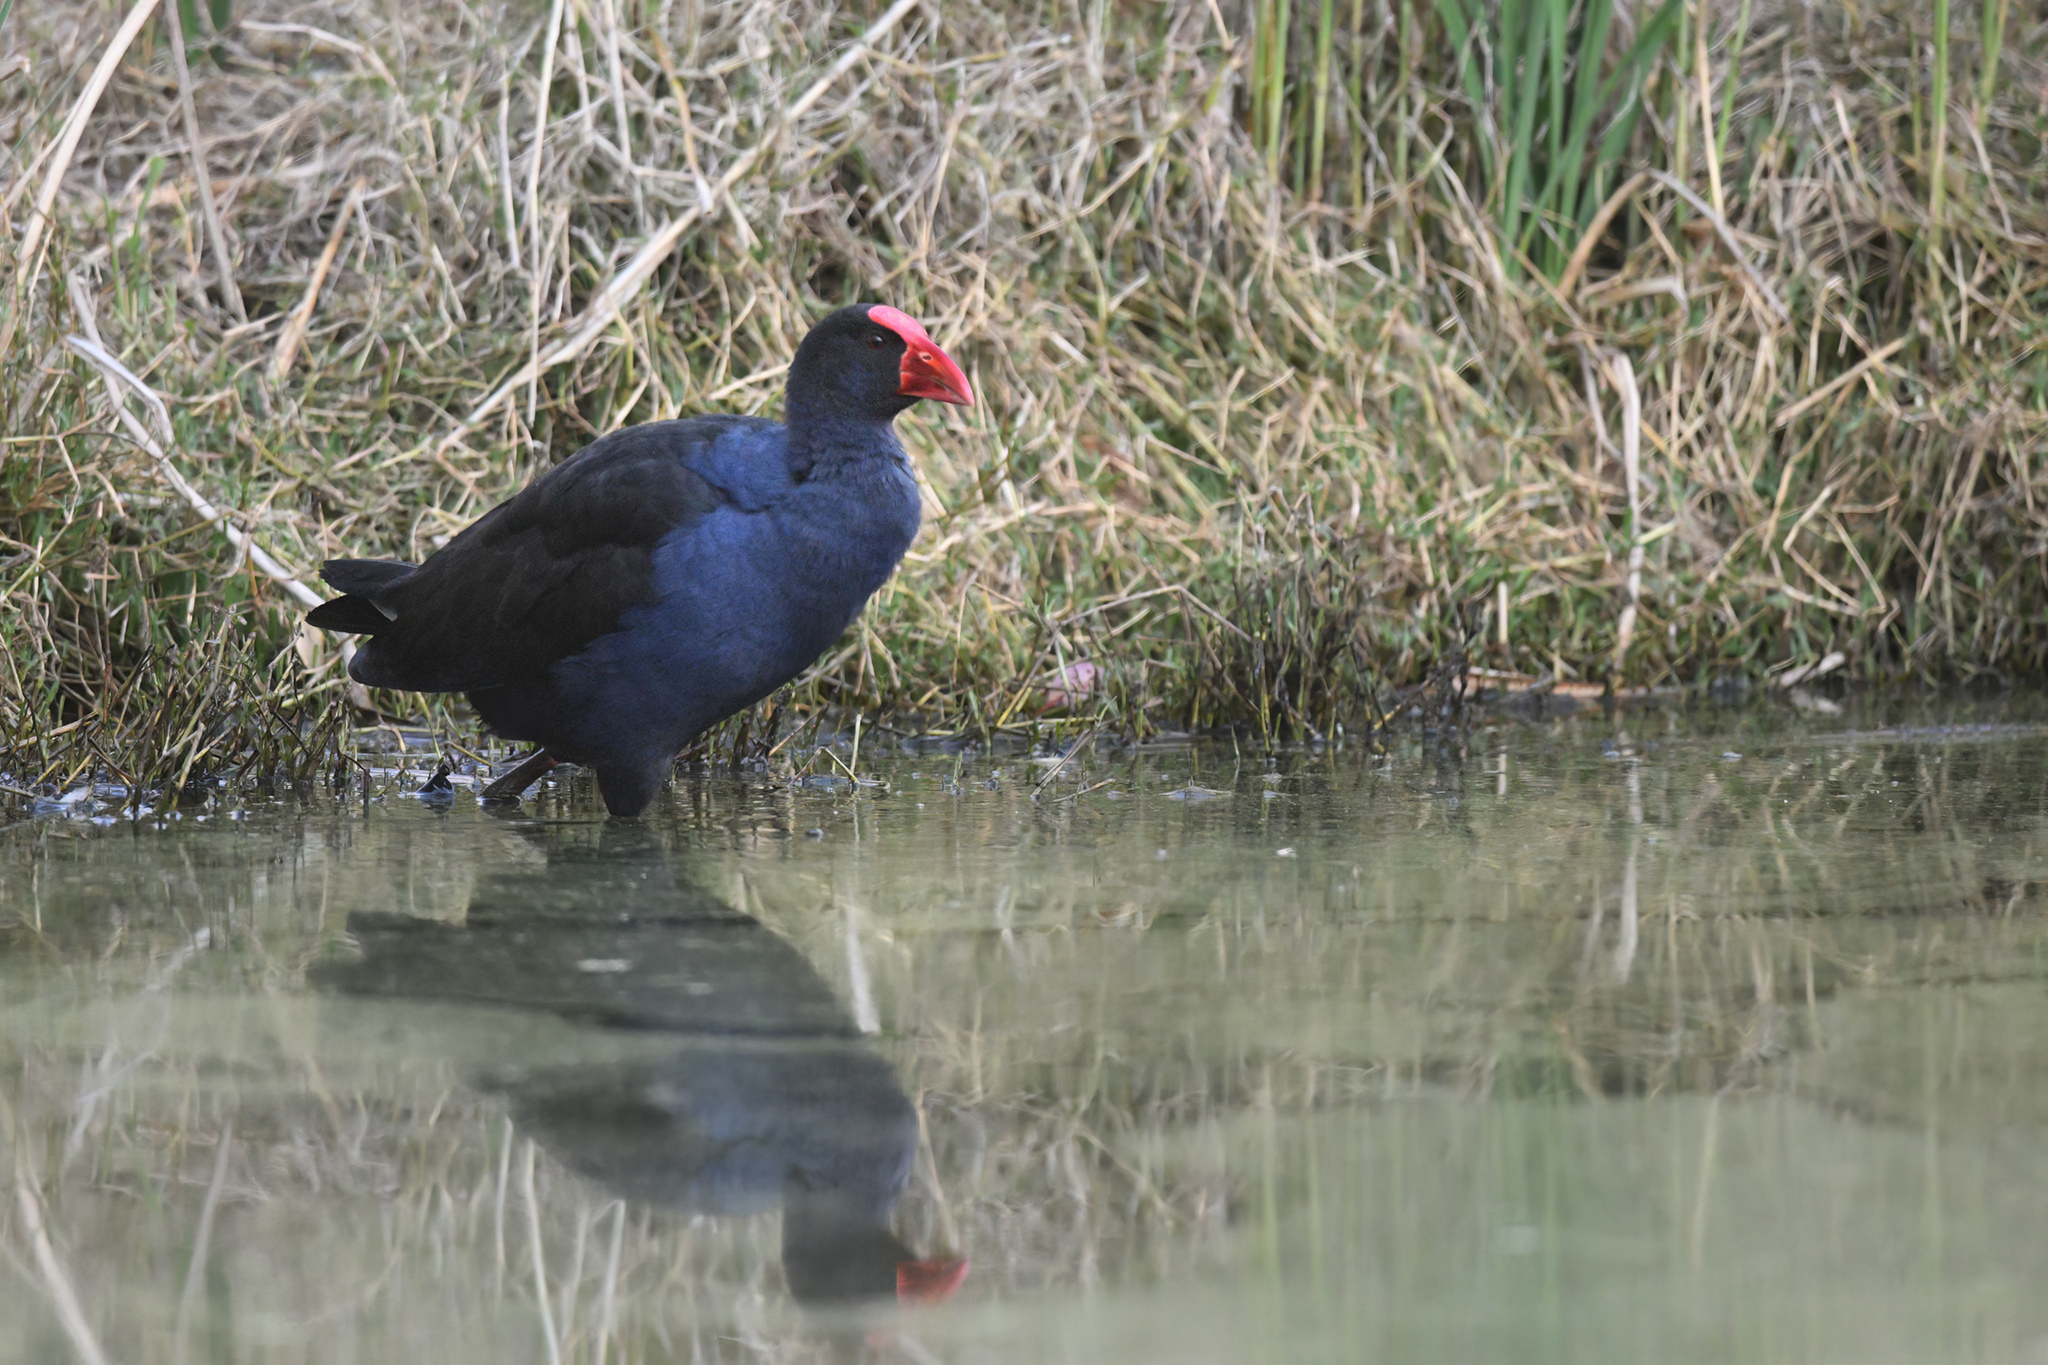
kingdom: Animalia
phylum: Chordata
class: Aves
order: Gruiformes
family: Rallidae
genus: Porphyrio
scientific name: Porphyrio melanotus
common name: Australasian swamphen
